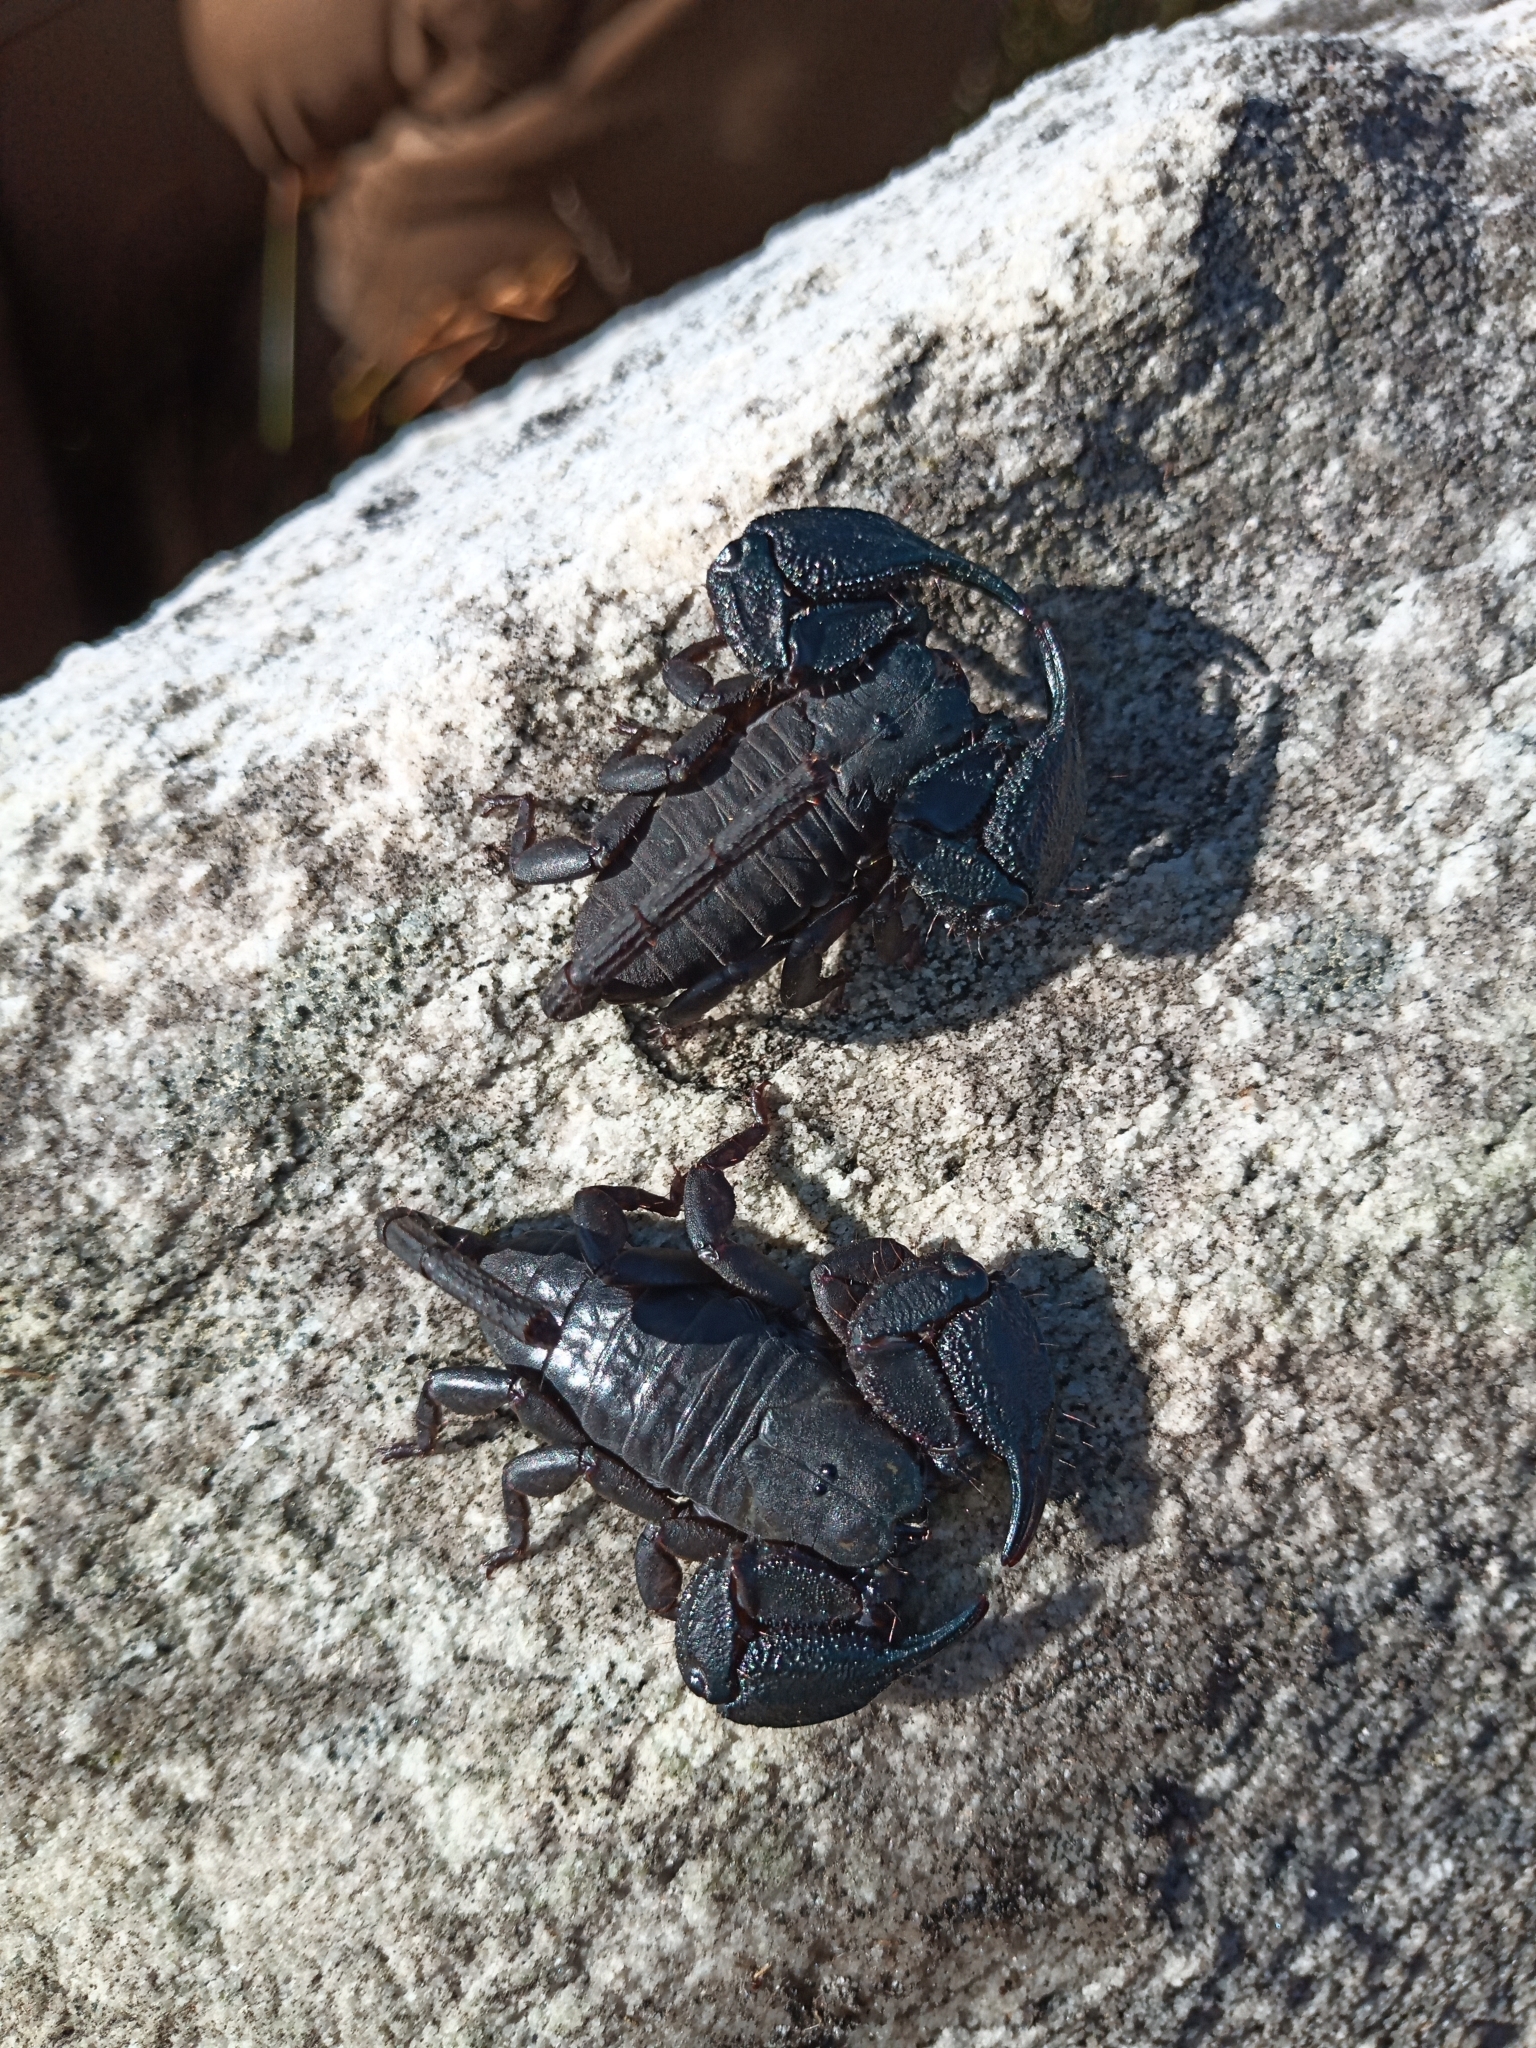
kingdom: Animalia
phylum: Arthropoda
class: Arachnida
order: Scorpiones
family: Hormuridae
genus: Opisthacanthus
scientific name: Opisthacanthus capensis
